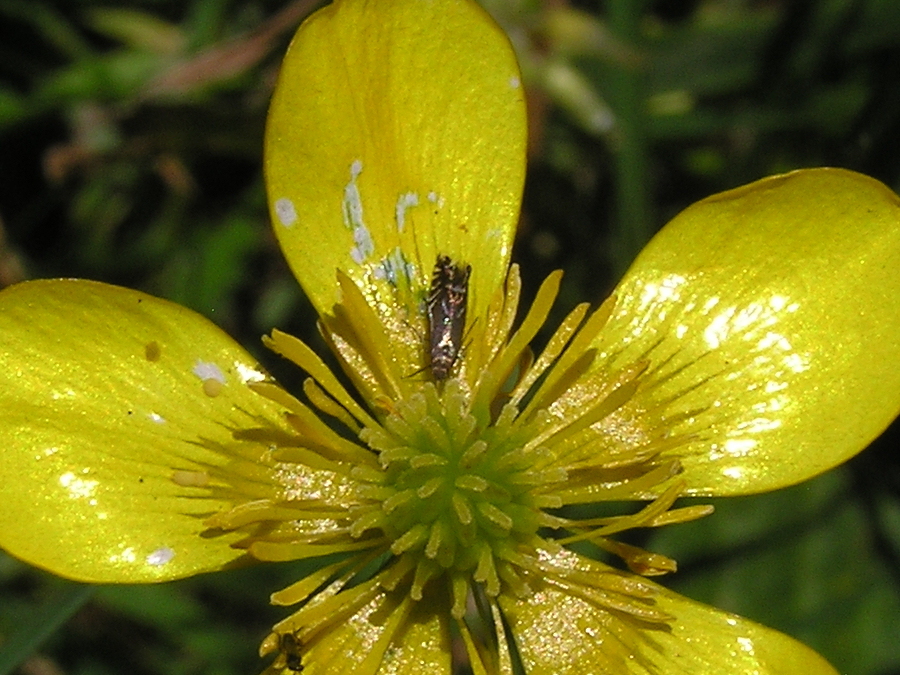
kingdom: Animalia
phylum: Arthropoda
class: Insecta
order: Lepidoptera
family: Glyphipterigidae
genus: Glyphipterix
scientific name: Glyphipterix simpliciella
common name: Cocksfoot moth
